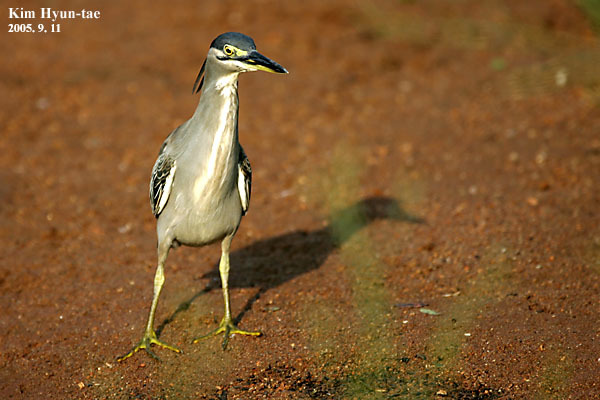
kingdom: Animalia
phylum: Chordata
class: Aves
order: Pelecaniformes
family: Ardeidae
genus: Butorides
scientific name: Butorides striata
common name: Striated heron
